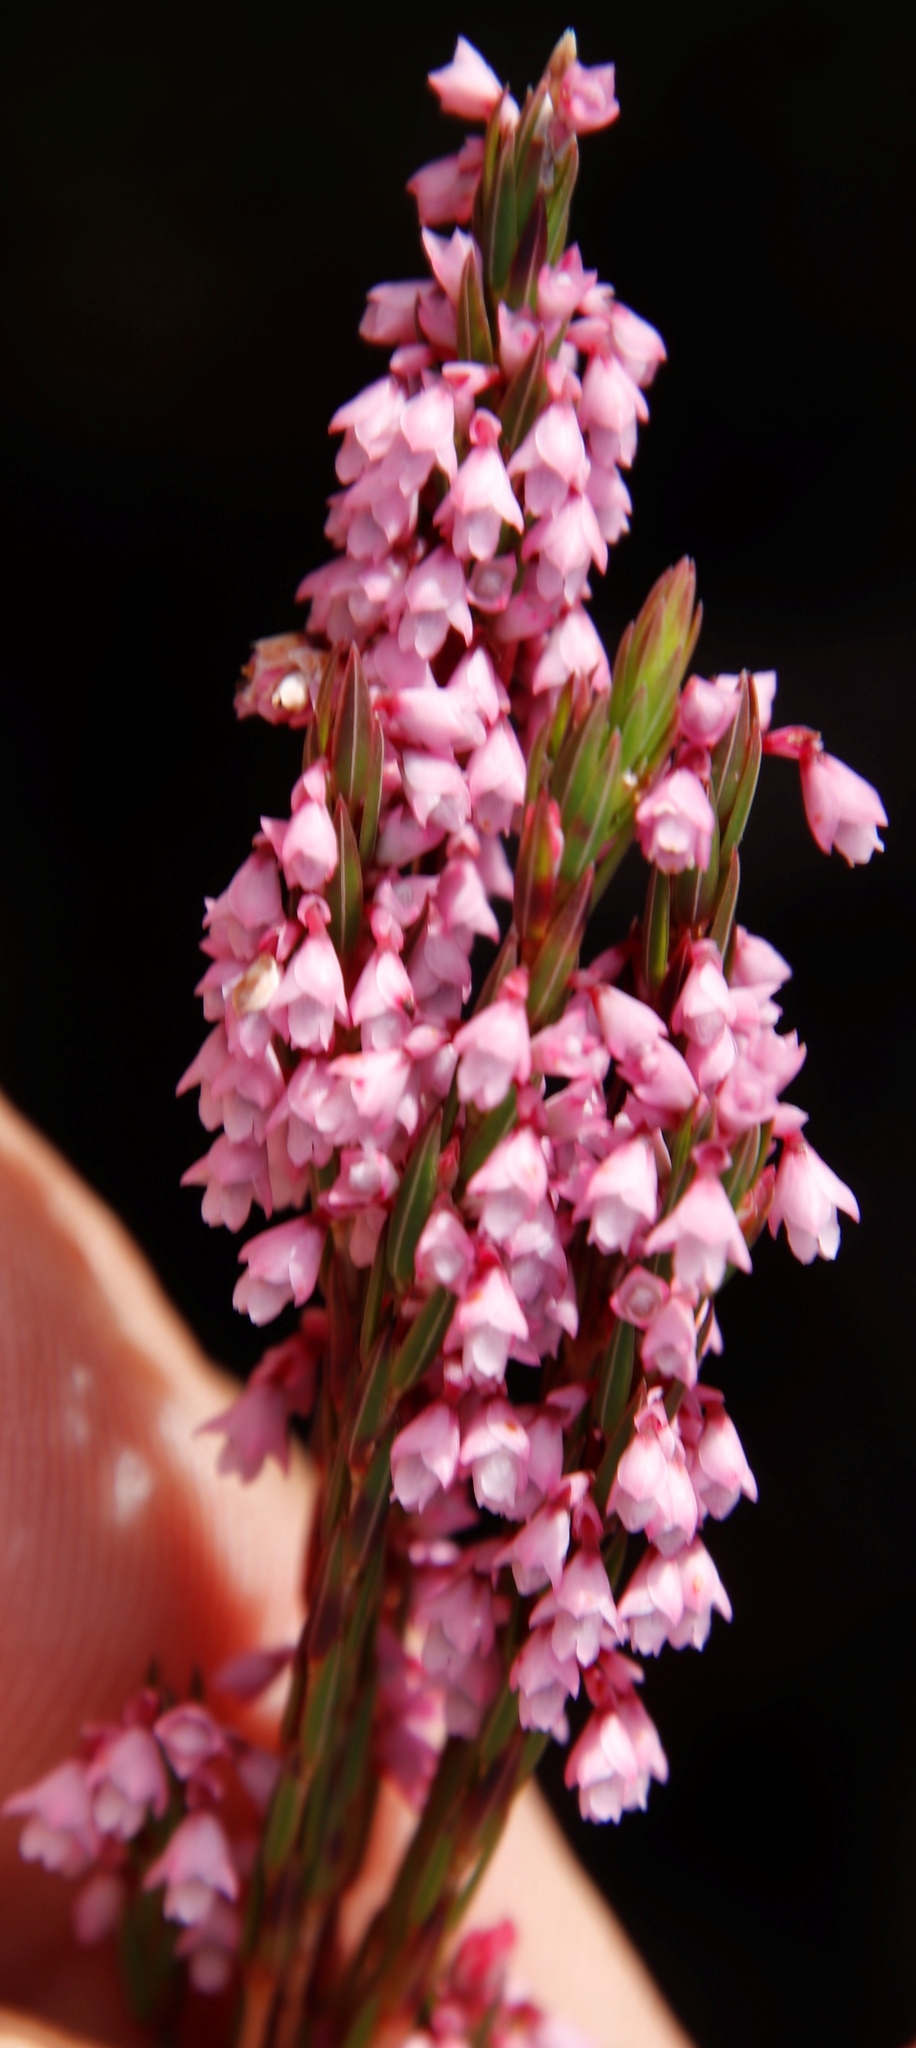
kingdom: Plantae
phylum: Tracheophyta
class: Magnoliopsida
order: Ericales
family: Ericaceae
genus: Erica
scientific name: Erica rhopalantha
